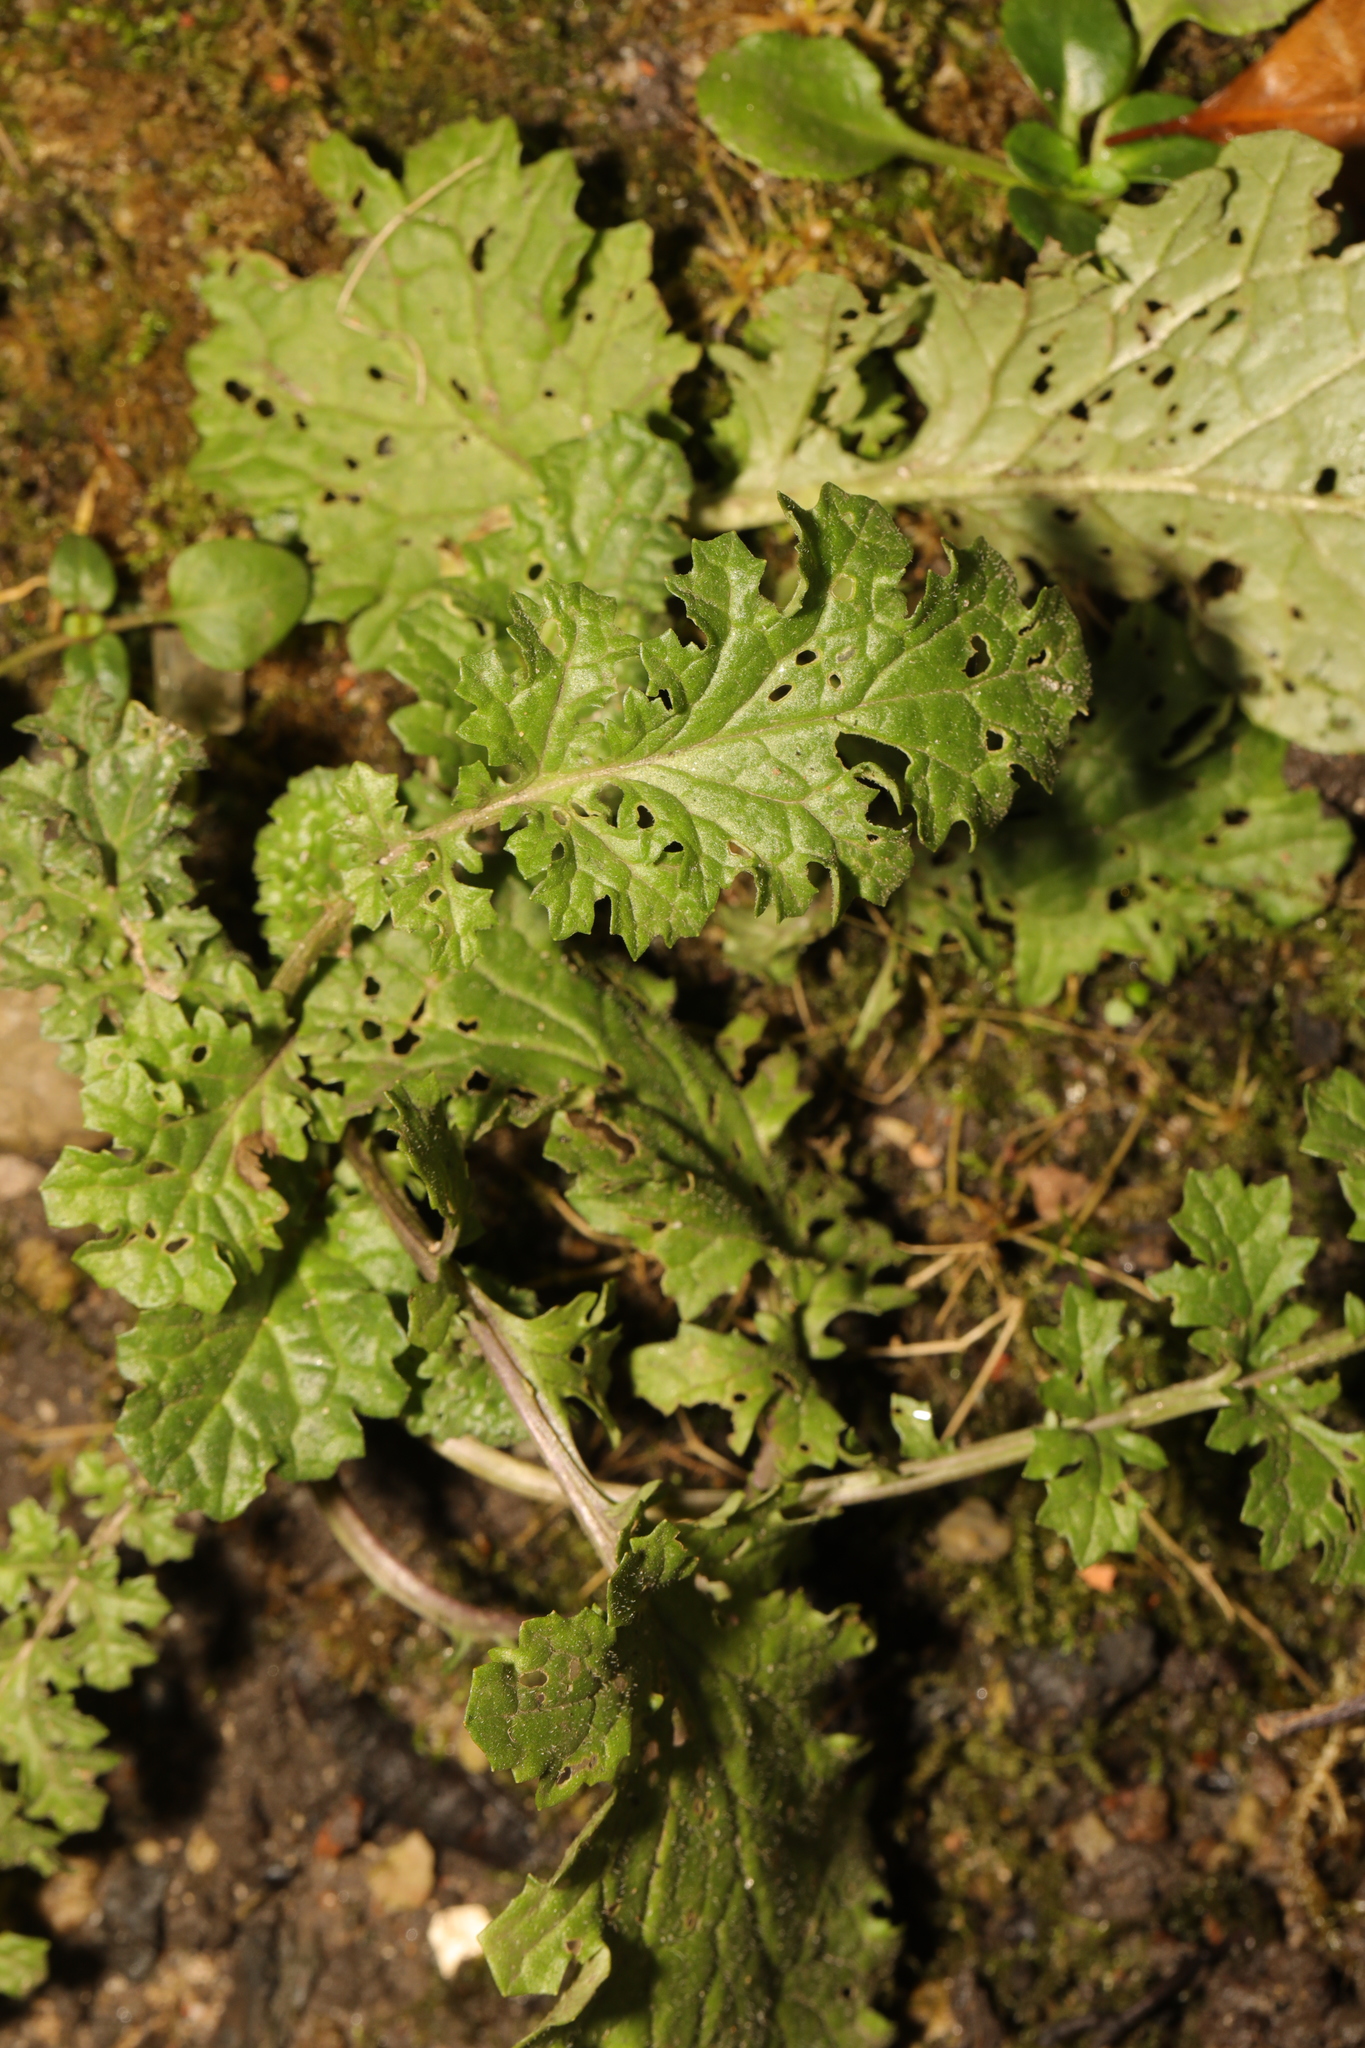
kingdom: Plantae
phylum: Tracheophyta
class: Magnoliopsida
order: Asterales
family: Asteraceae
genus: Jacobaea
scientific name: Jacobaea vulgaris
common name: Stinking willie
